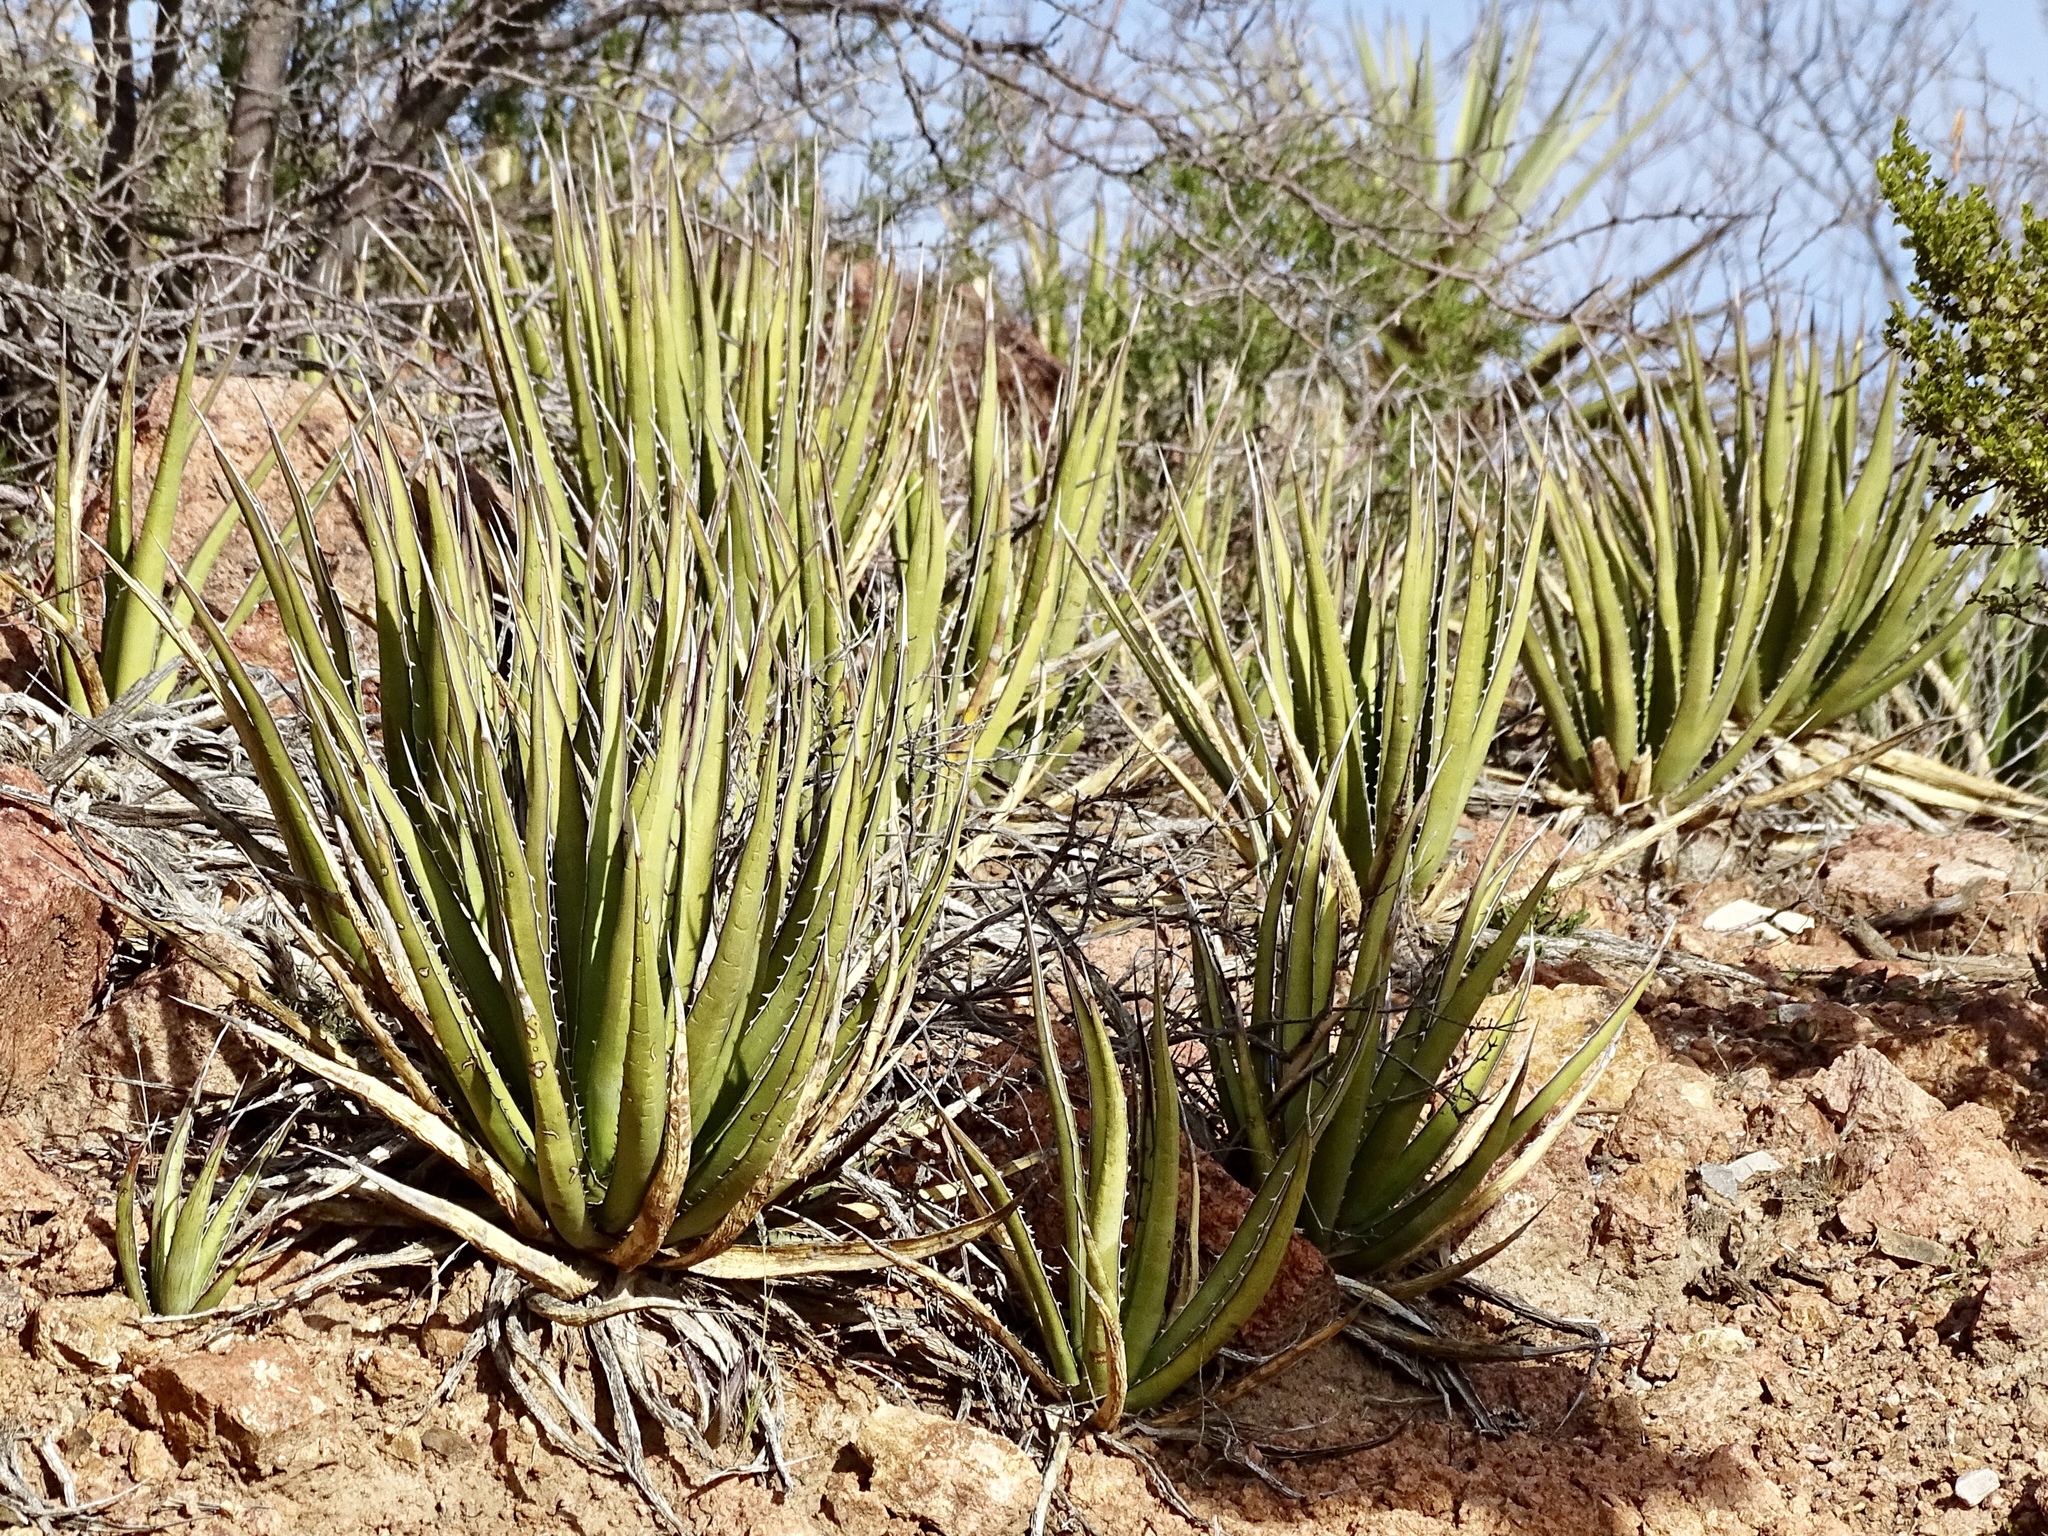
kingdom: Plantae
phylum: Tracheophyta
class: Liliopsida
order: Asparagales
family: Asparagaceae
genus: Agave
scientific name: Agave lechuguilla
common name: Lecheguilla agave
